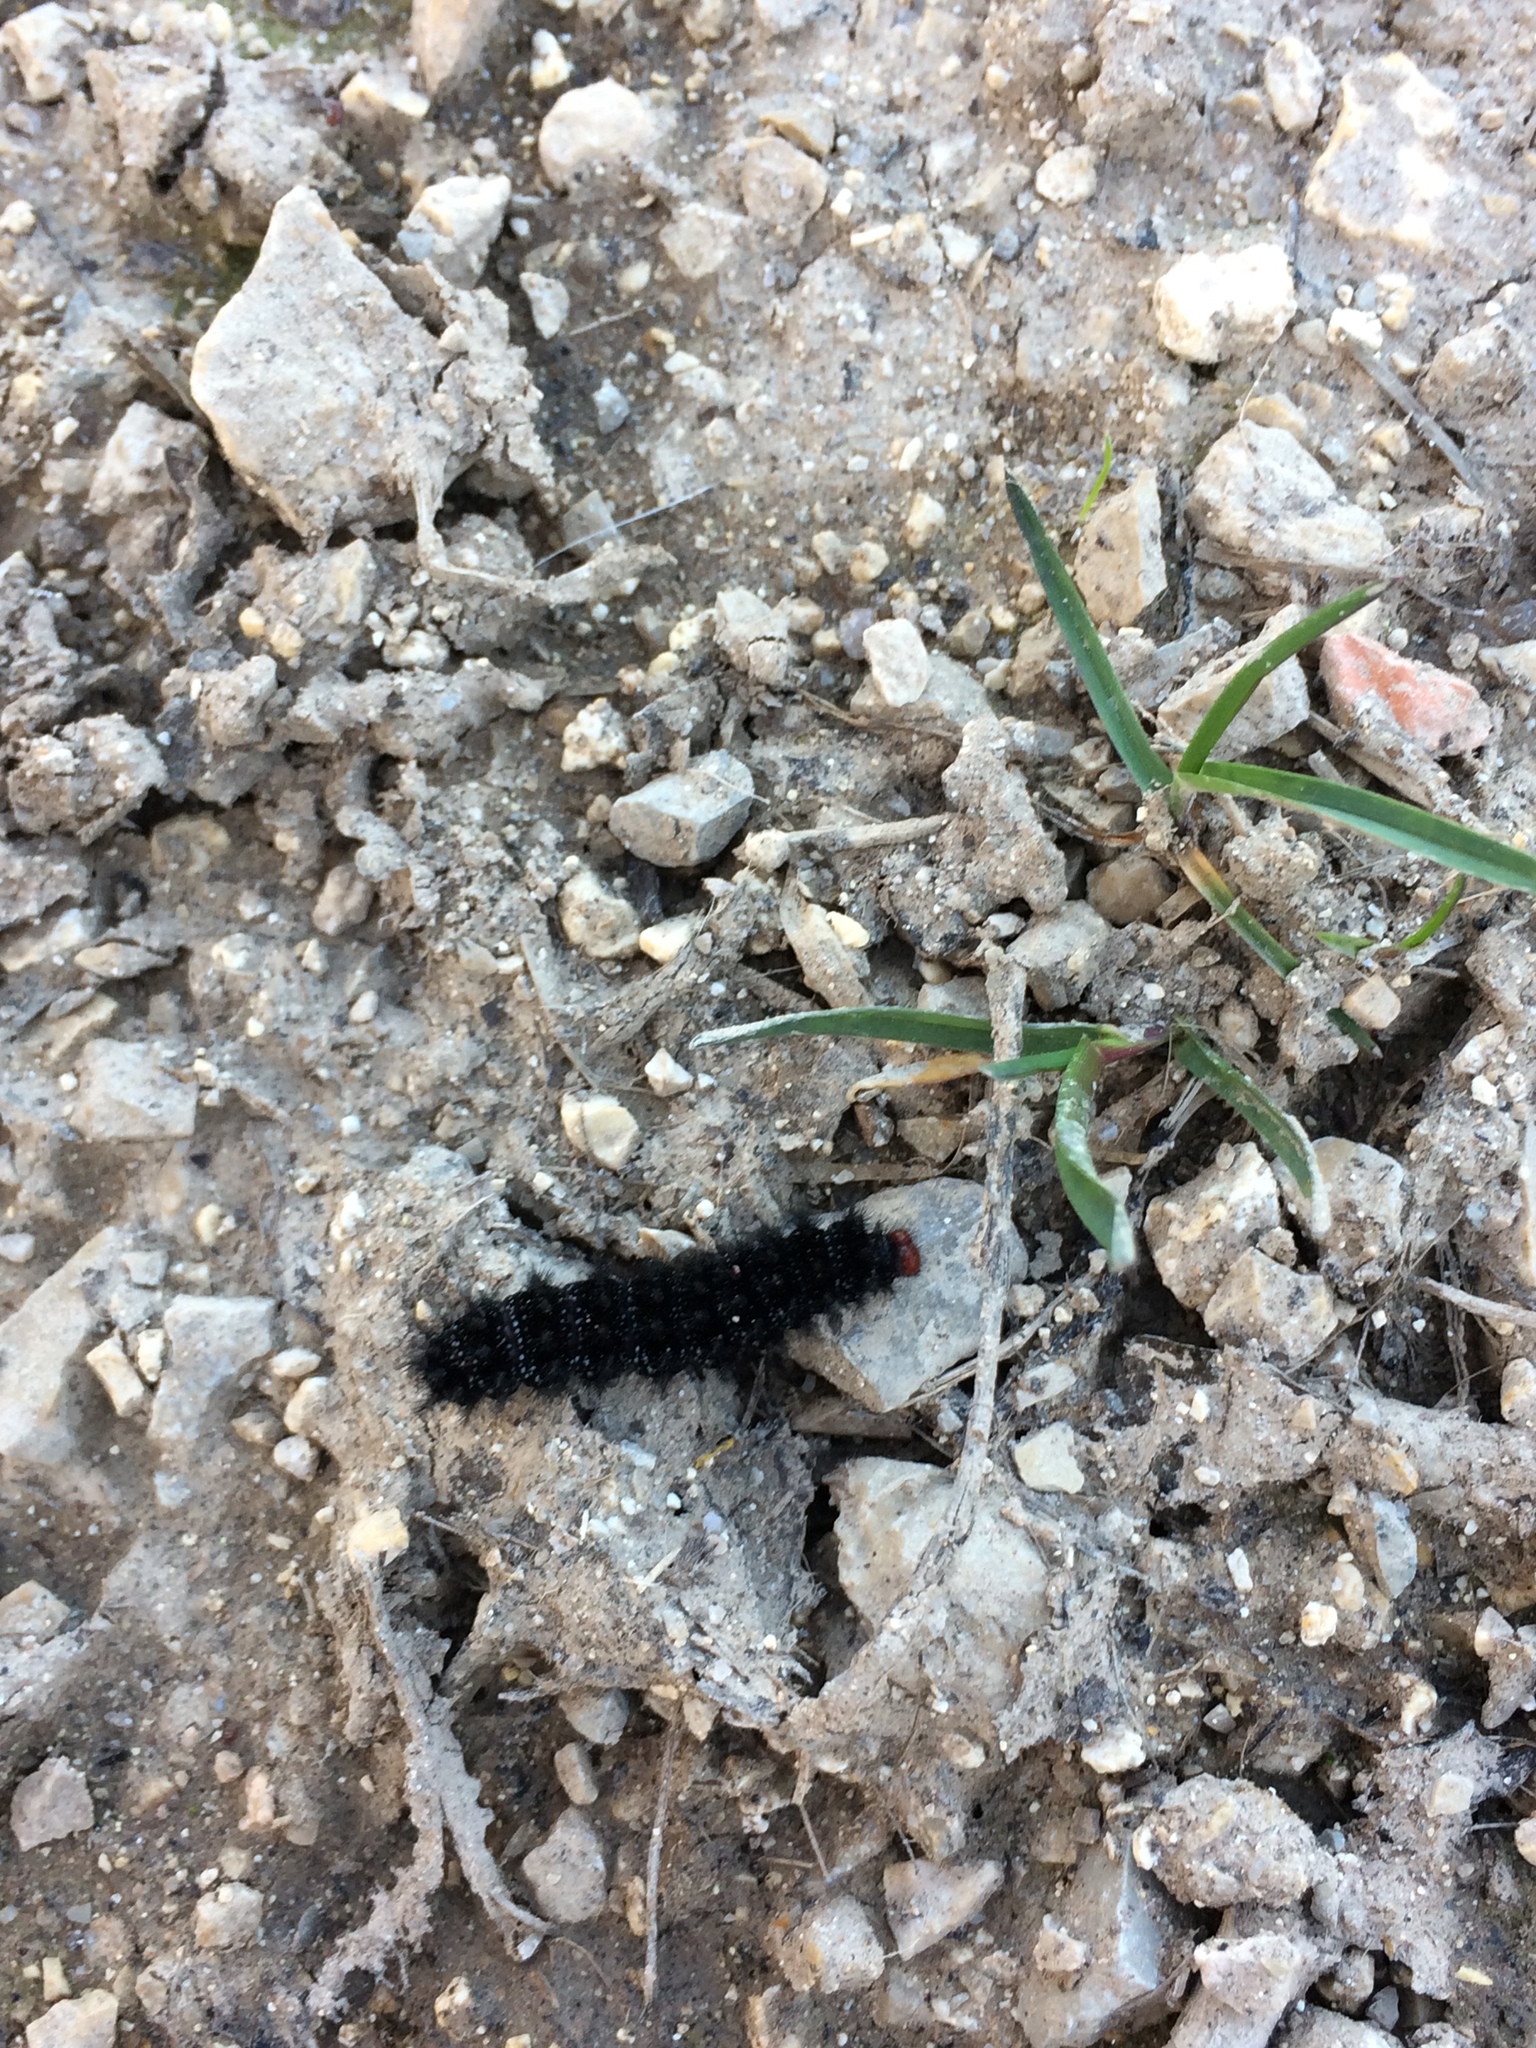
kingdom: Animalia
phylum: Arthropoda
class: Insecta
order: Lepidoptera
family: Nymphalidae
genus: Melitaea
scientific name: Melitaea cinxia
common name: Glanville fritillary
